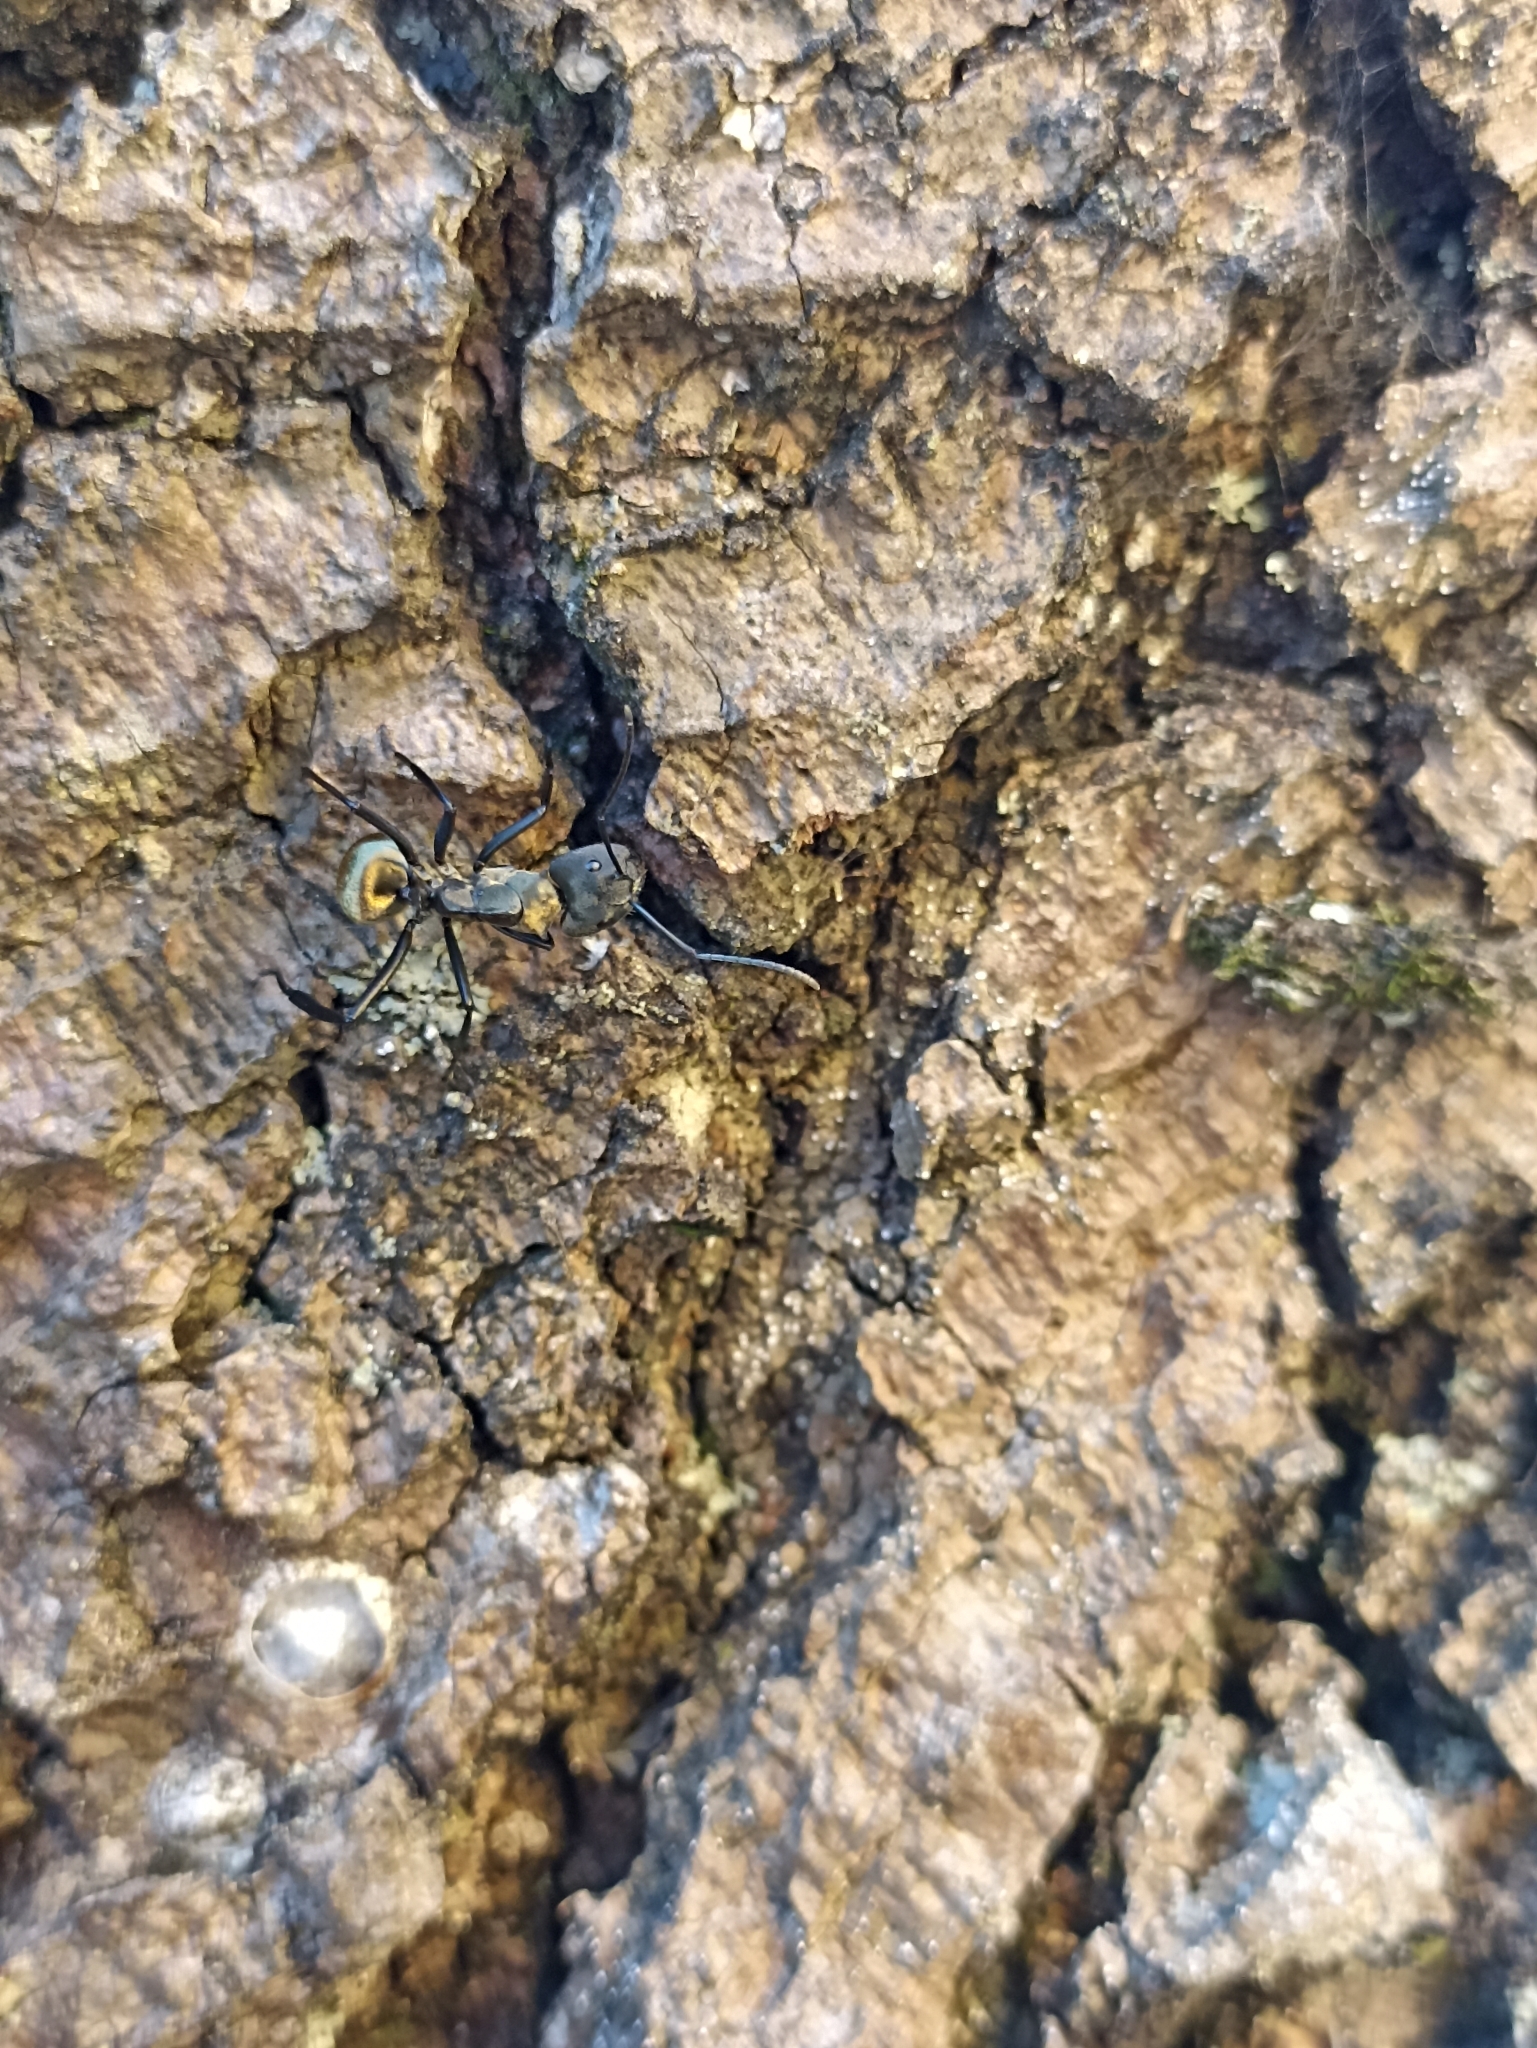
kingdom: Animalia
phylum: Arthropoda
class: Insecta
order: Hymenoptera
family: Formicidae
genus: Camponotus
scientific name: Camponotus sericeiventris
